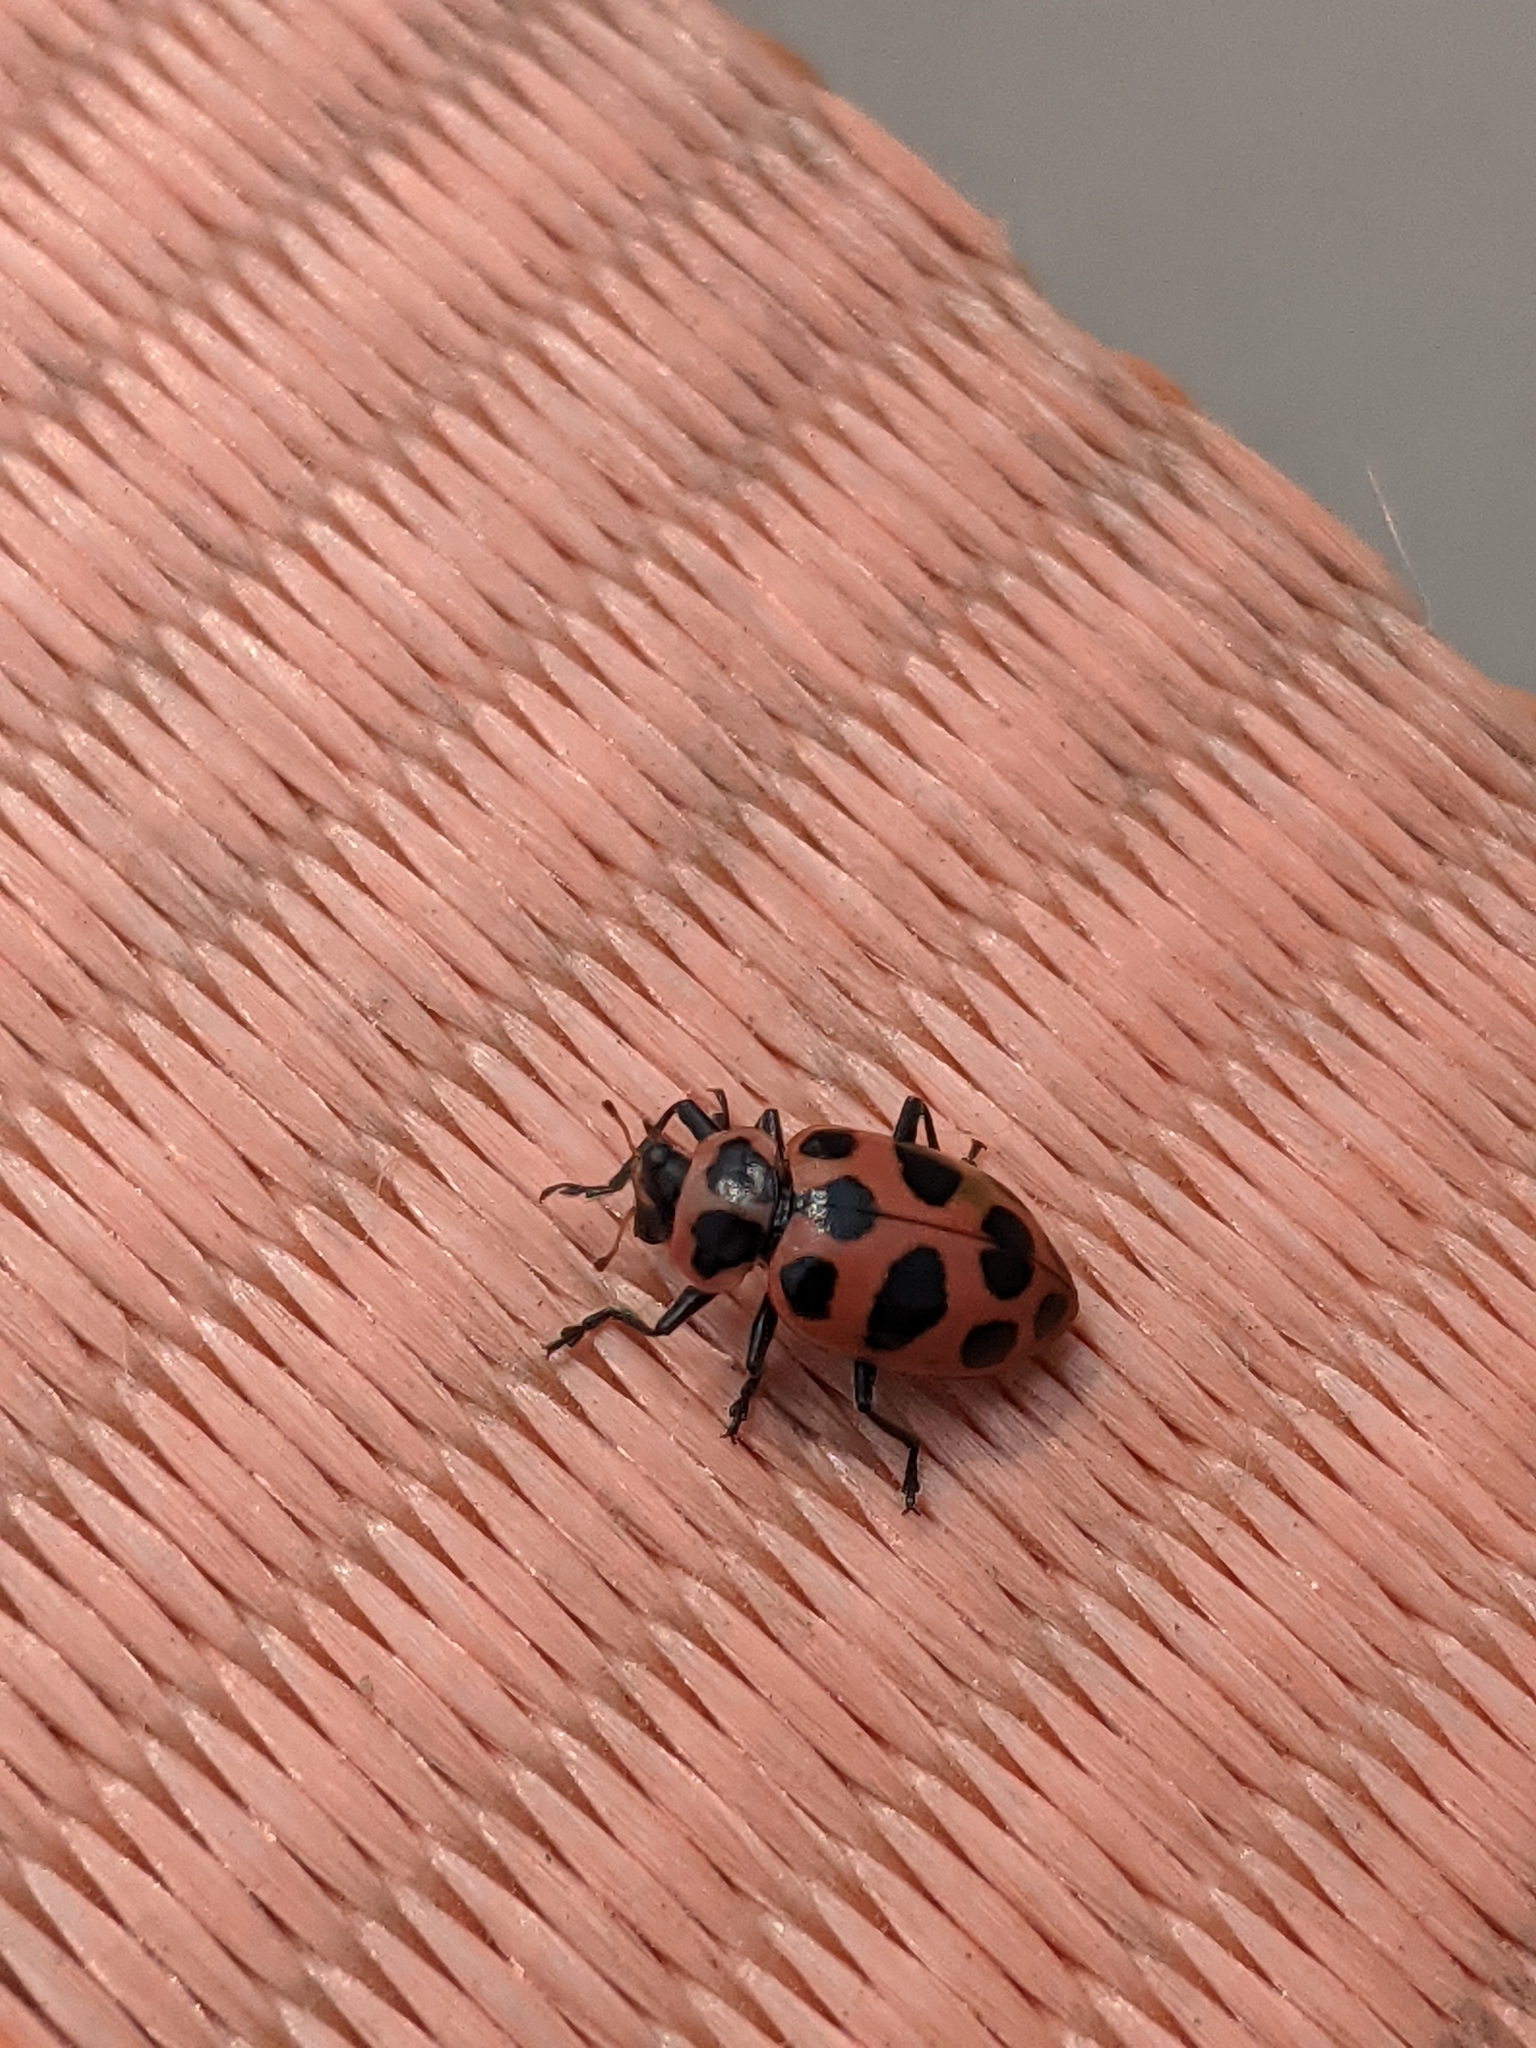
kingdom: Animalia
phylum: Arthropoda
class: Insecta
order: Coleoptera
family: Coccinellidae
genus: Coleomegilla
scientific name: Coleomegilla maculata
